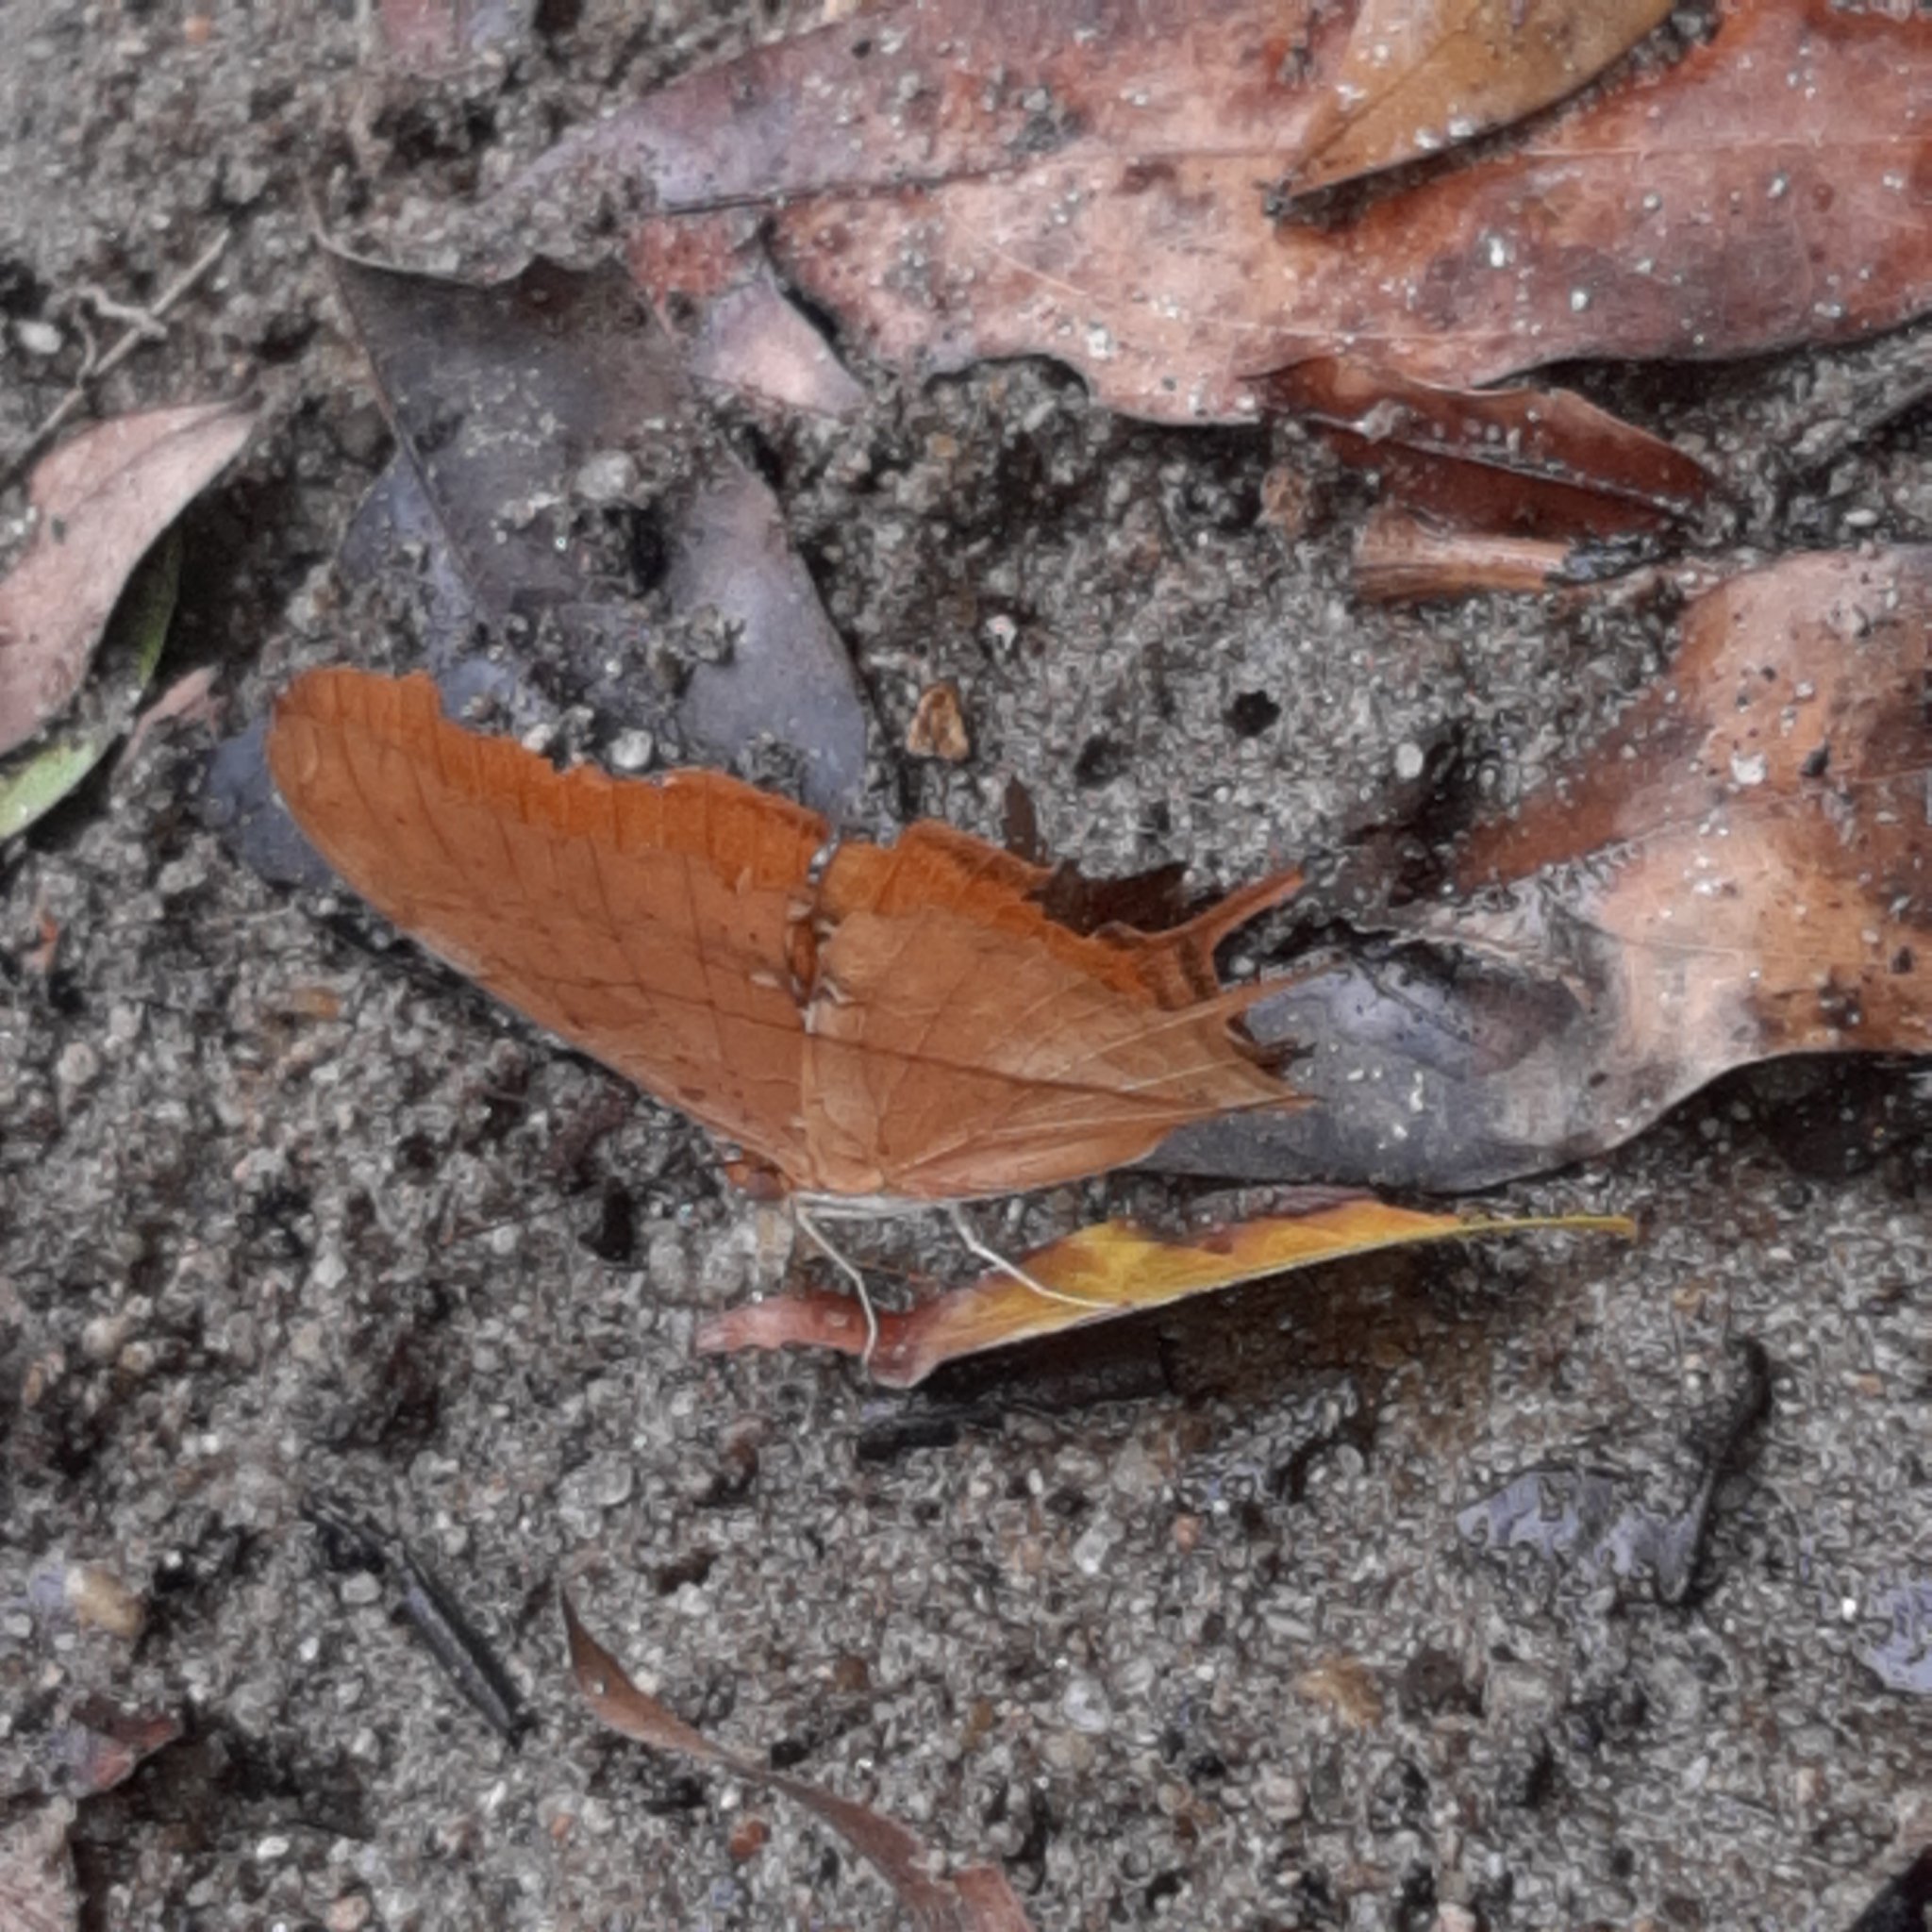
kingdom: Animalia
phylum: Arthropoda
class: Insecta
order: Lepidoptera
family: Nymphalidae
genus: Marpesia
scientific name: Marpesia petreus
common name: Red dagger wing
